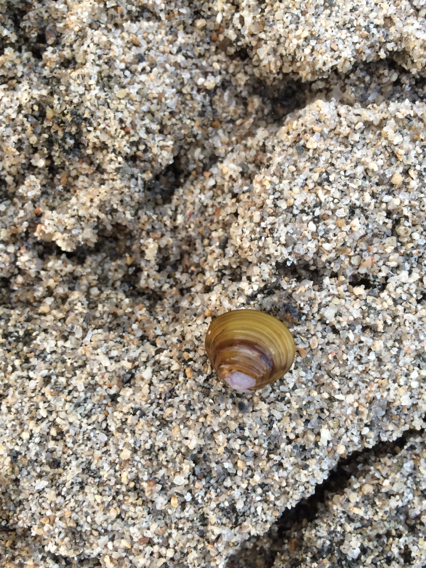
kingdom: Animalia
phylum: Mollusca
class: Bivalvia
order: Venerida
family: Cyrenidae
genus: Corbicula
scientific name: Corbicula fluminea
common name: Asian clam
